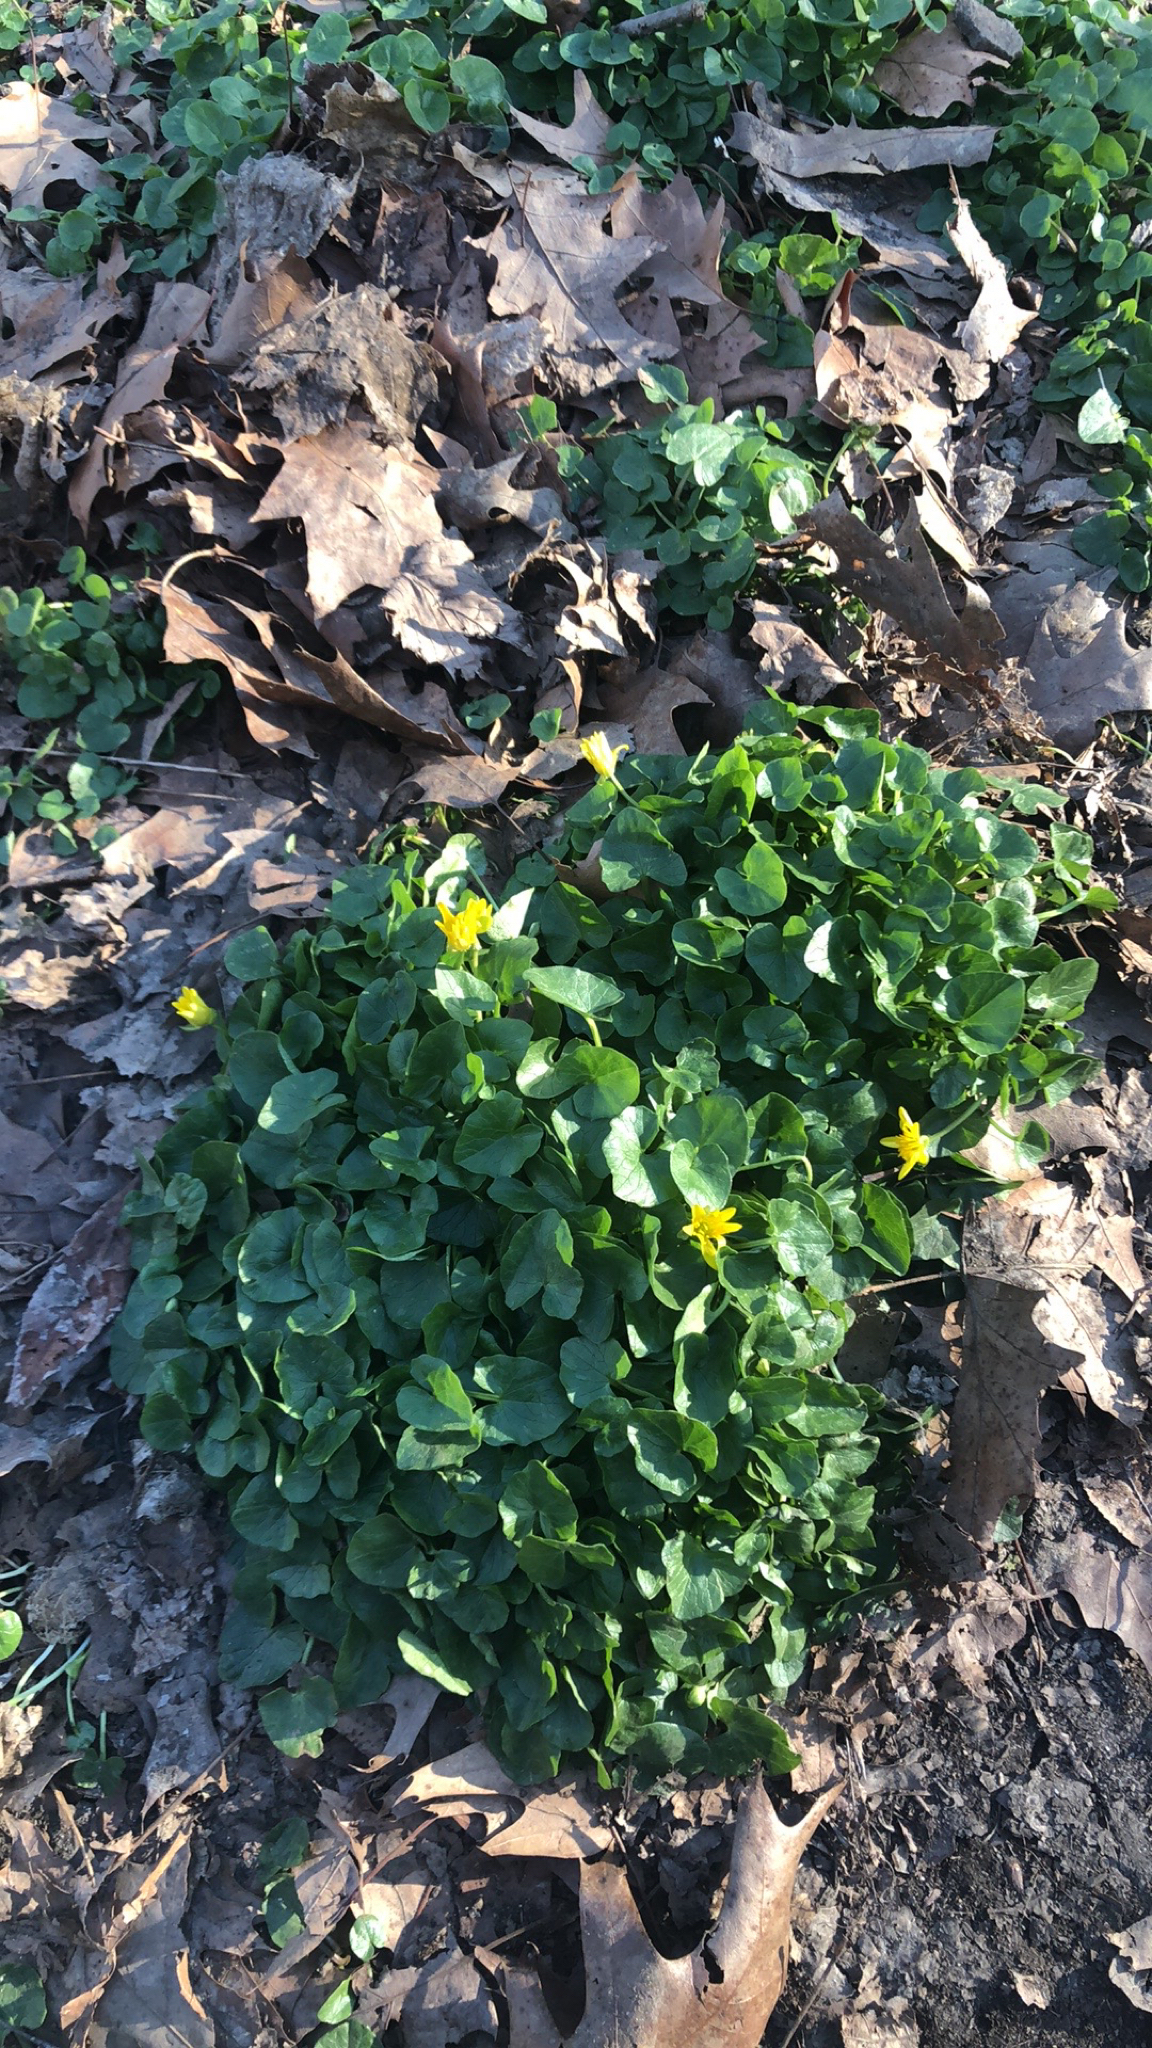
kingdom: Plantae
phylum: Tracheophyta
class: Magnoliopsida
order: Ranunculales
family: Ranunculaceae
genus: Ficaria
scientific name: Ficaria verna
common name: Lesser celandine
